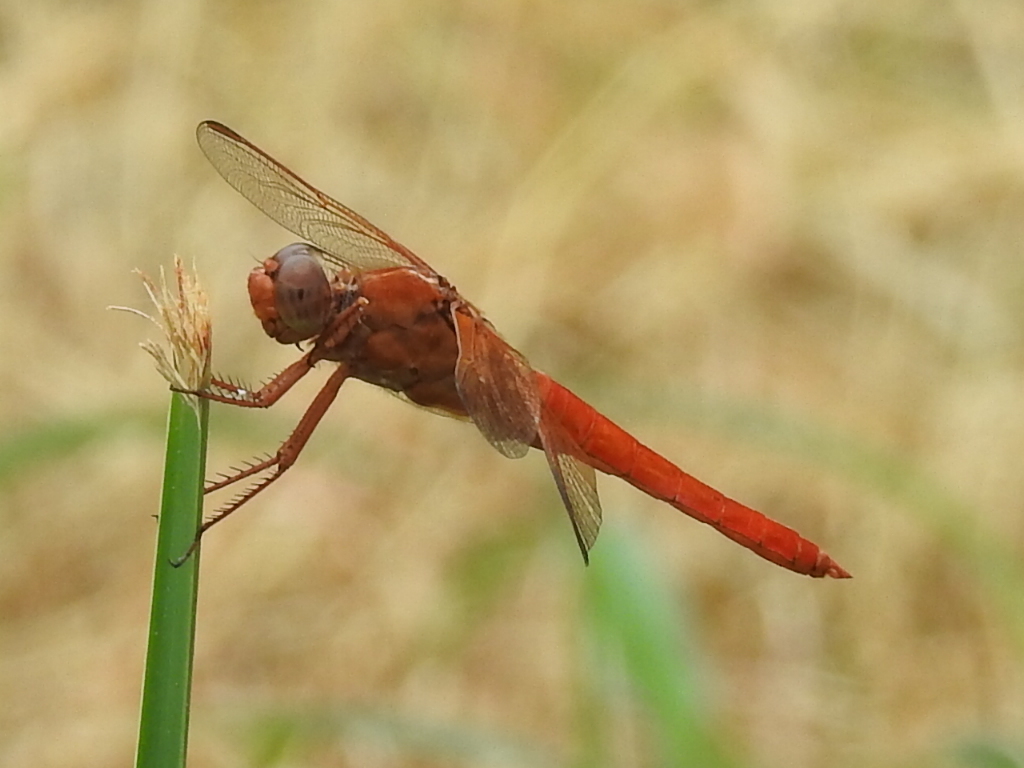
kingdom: Animalia
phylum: Arthropoda
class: Insecta
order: Odonata
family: Libellulidae
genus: Libellula
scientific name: Libellula croceipennis
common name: Neon skimmer
